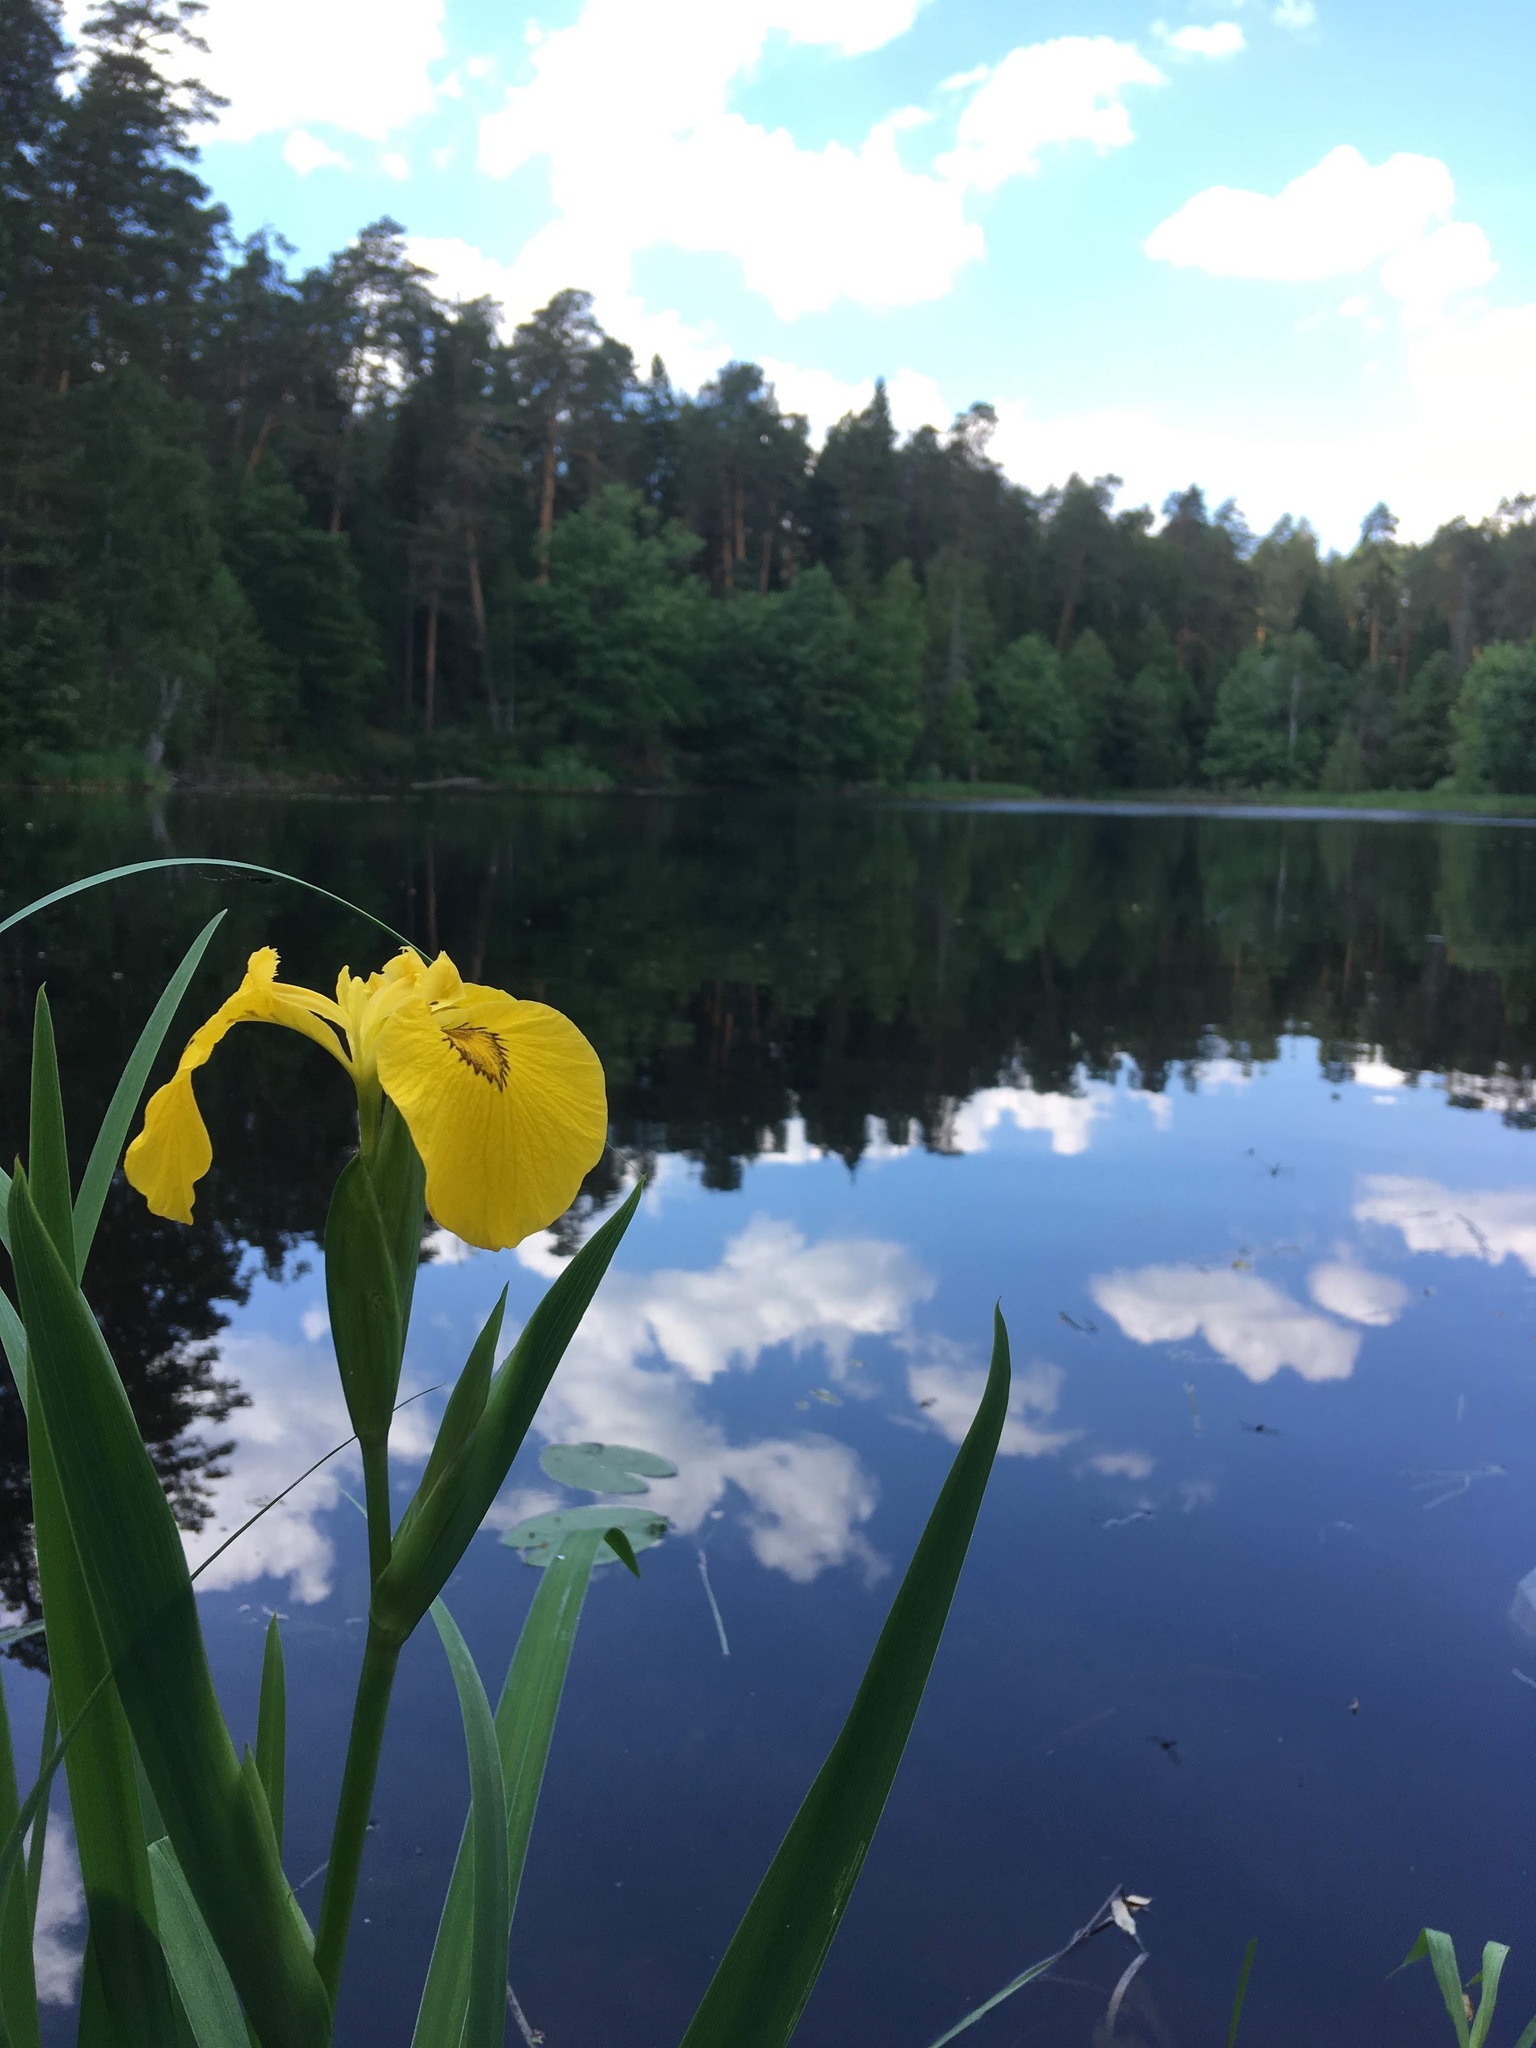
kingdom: Plantae
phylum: Tracheophyta
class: Liliopsida
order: Asparagales
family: Iridaceae
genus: Iris
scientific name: Iris pseudacorus
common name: Yellow flag
